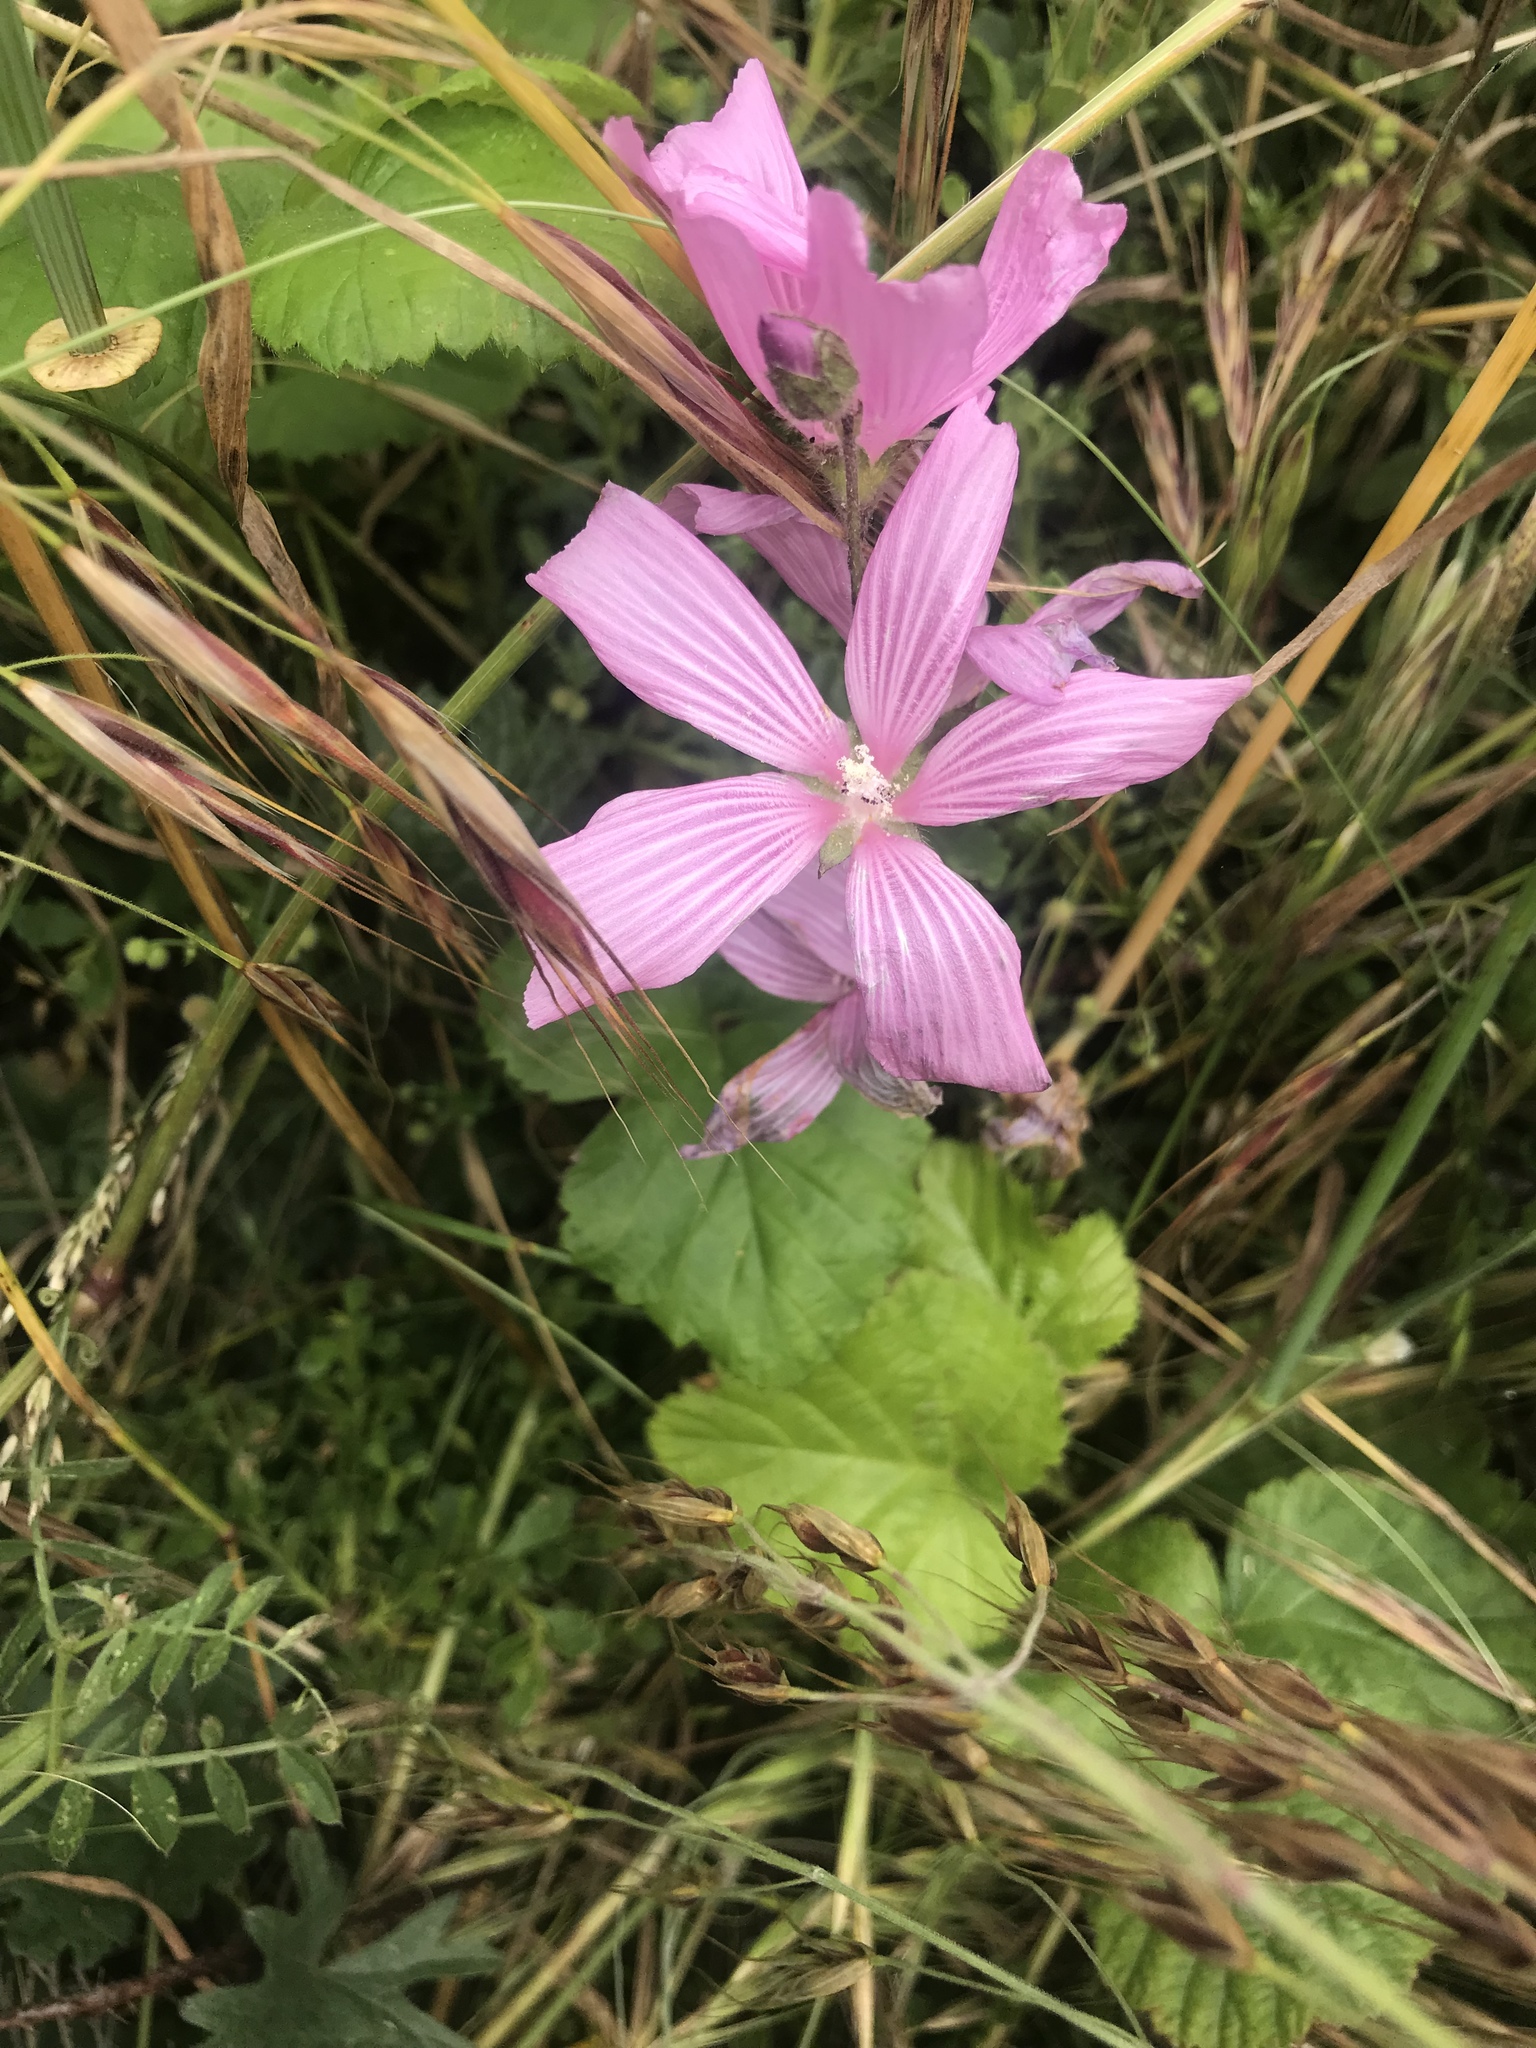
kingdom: Plantae
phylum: Tracheophyta
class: Magnoliopsida
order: Malvales
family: Malvaceae
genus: Sidalcea
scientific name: Sidalcea malviflora
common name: Greek mallow
